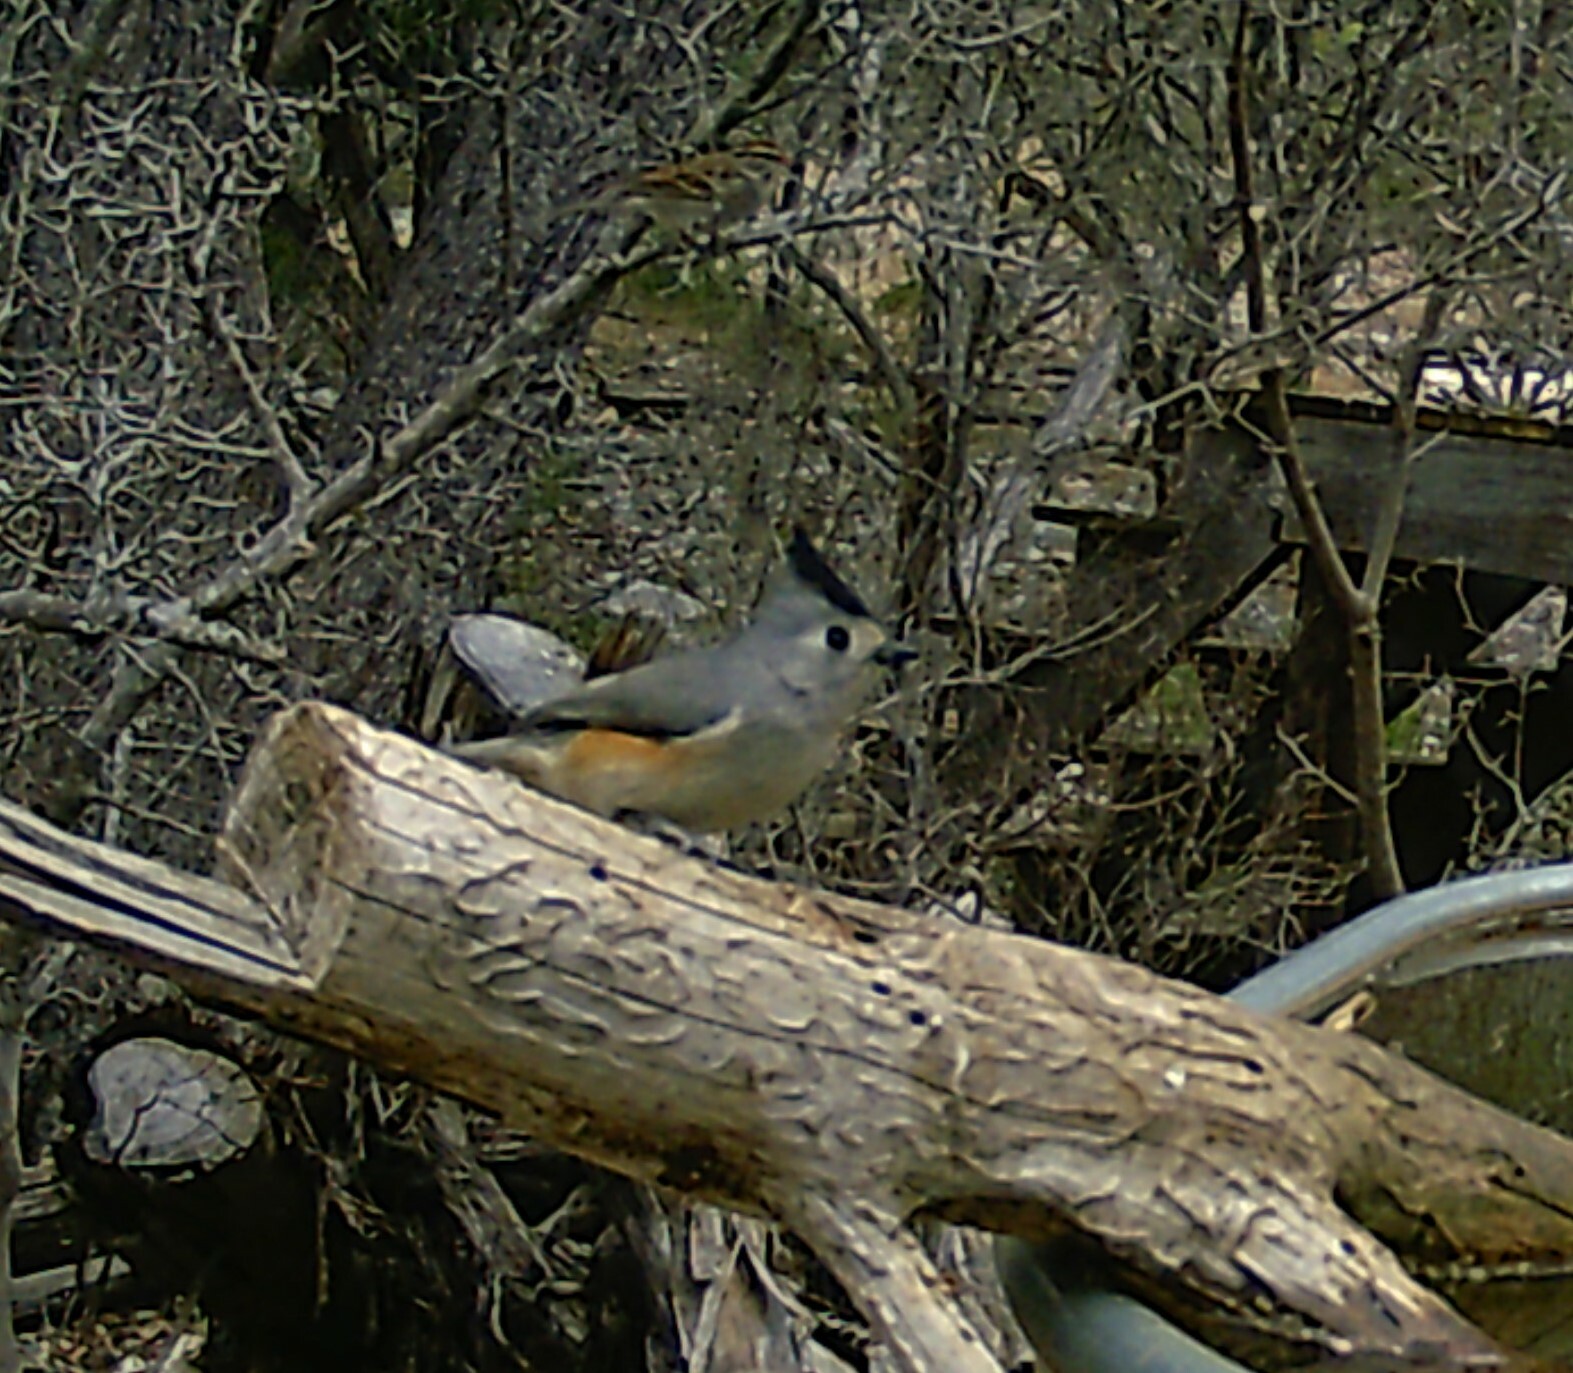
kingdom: Animalia
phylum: Chordata
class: Aves
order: Passeriformes
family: Paridae
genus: Baeolophus
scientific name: Baeolophus atricristatus
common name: Black-crested titmouse
